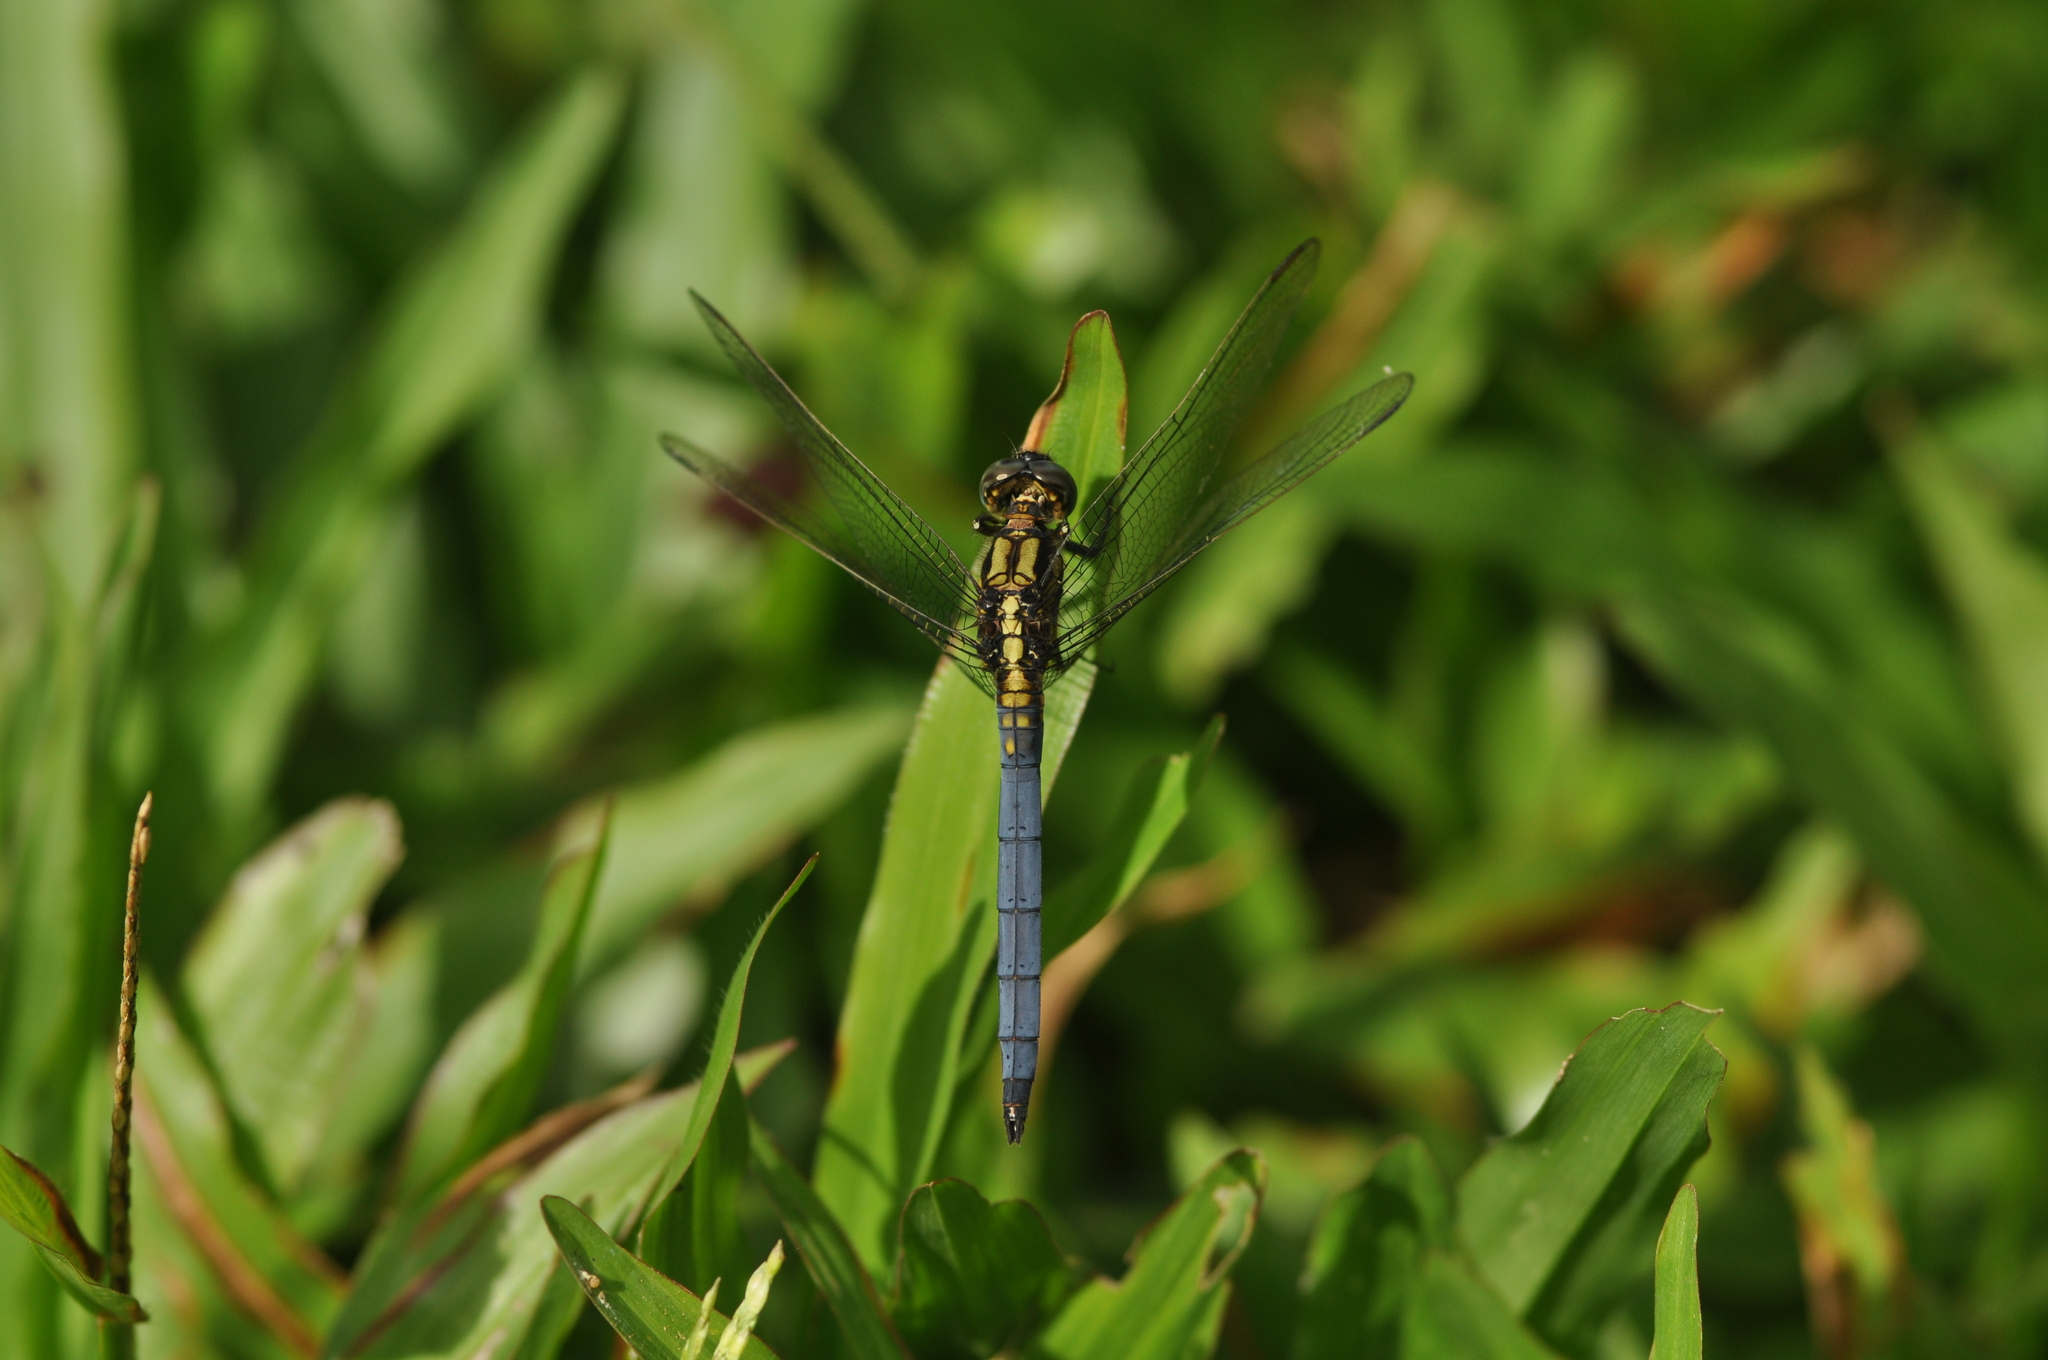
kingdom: Animalia
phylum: Arthropoda
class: Insecta
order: Odonata
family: Libellulidae
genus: Orthetrum
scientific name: Orthetrum luzonicum
